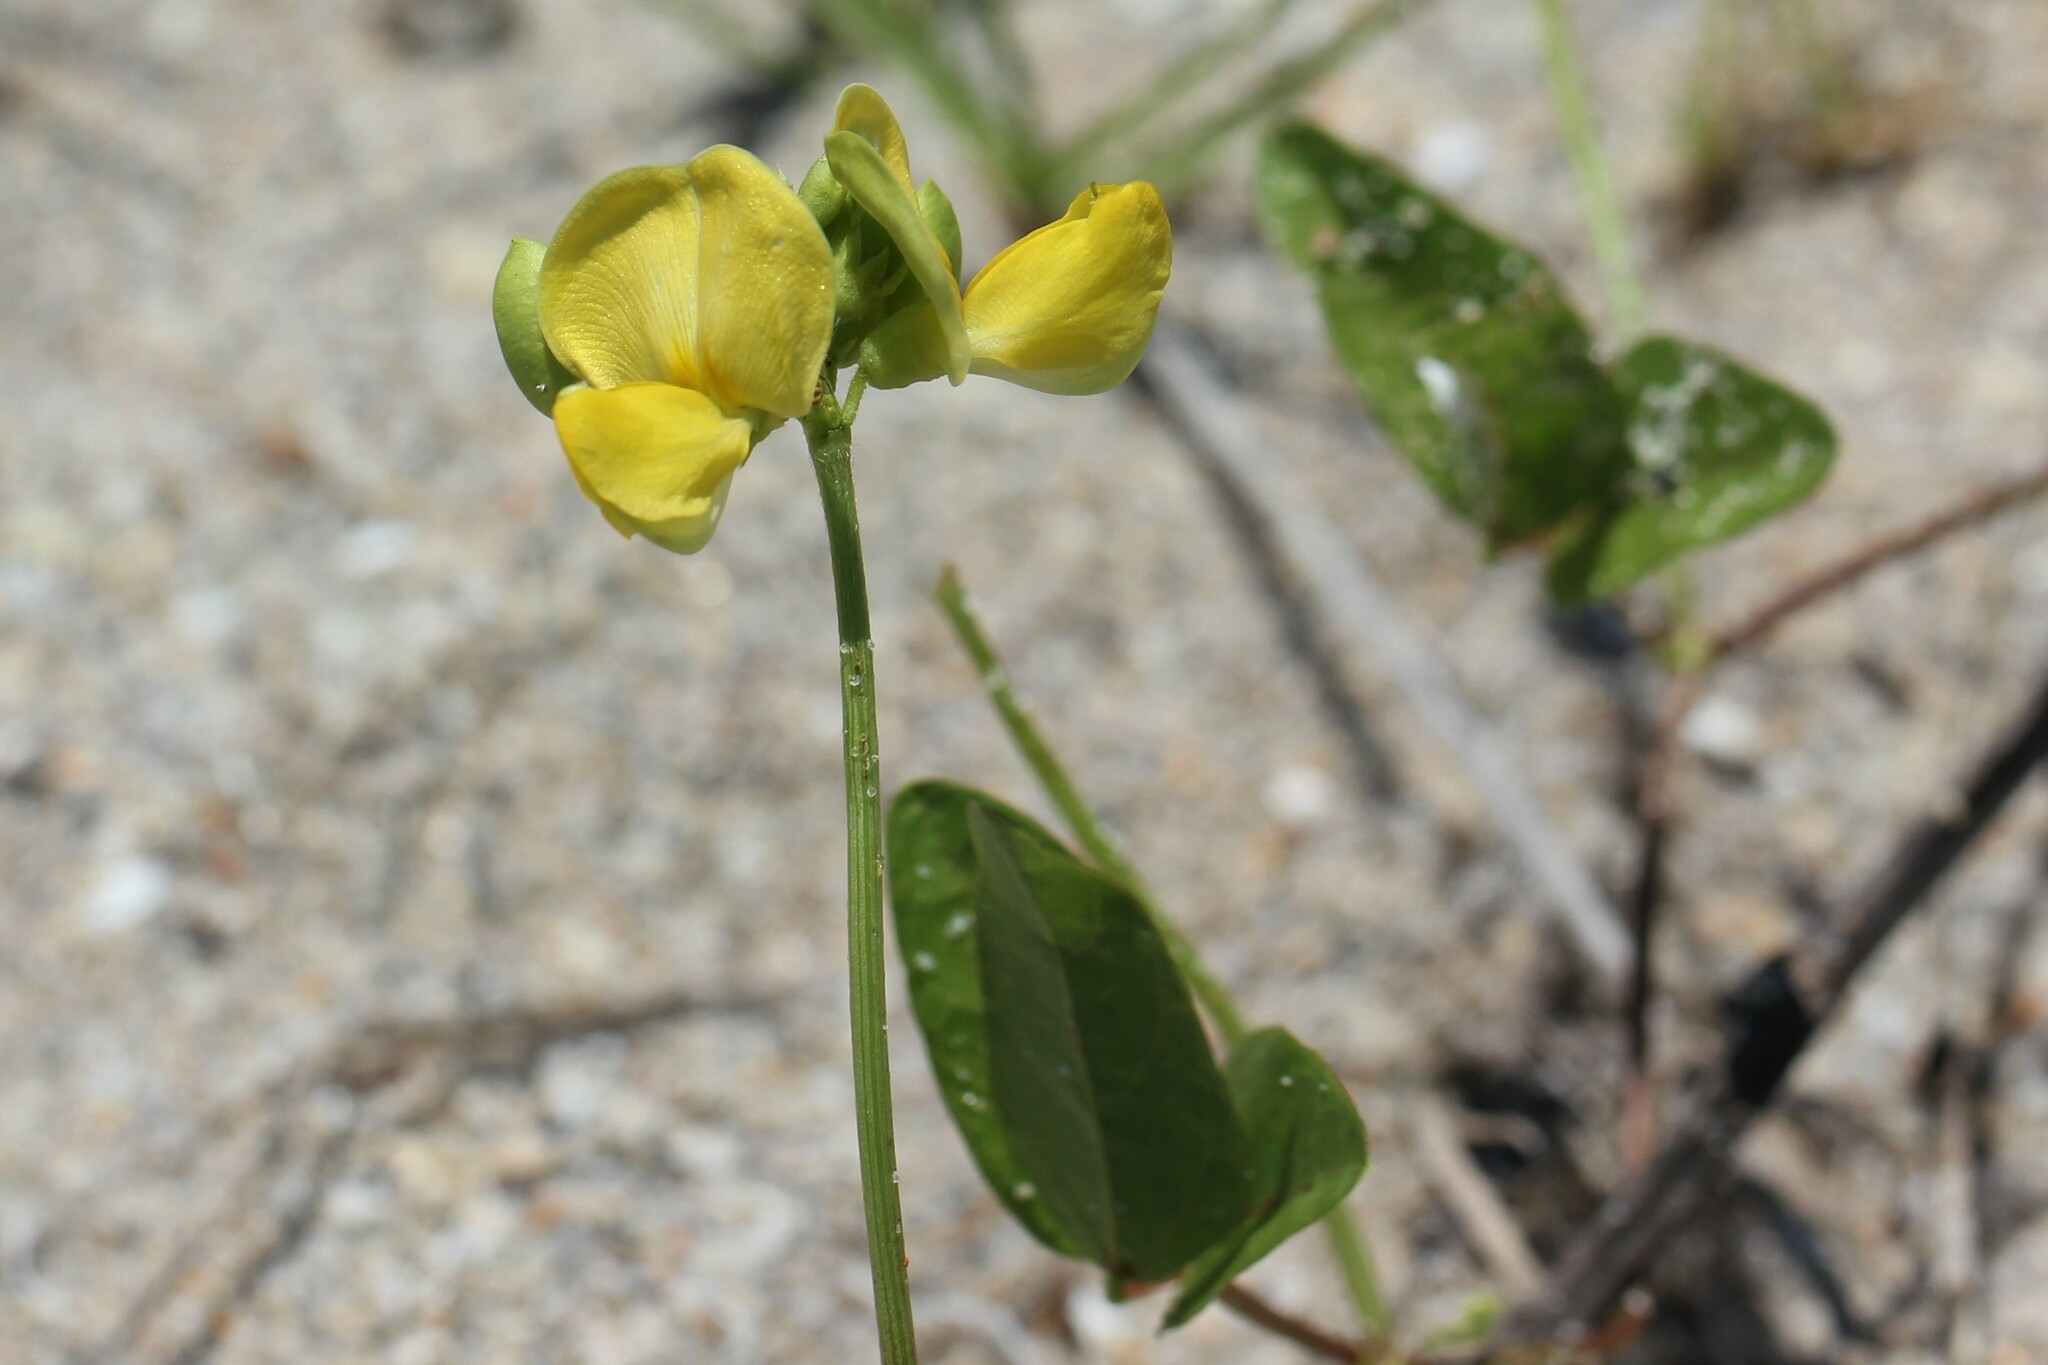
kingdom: Plantae
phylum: Tracheophyta
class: Magnoliopsida
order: Fabales
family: Fabaceae
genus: Vigna
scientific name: Vigna luteola
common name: Hairypod cowpea
